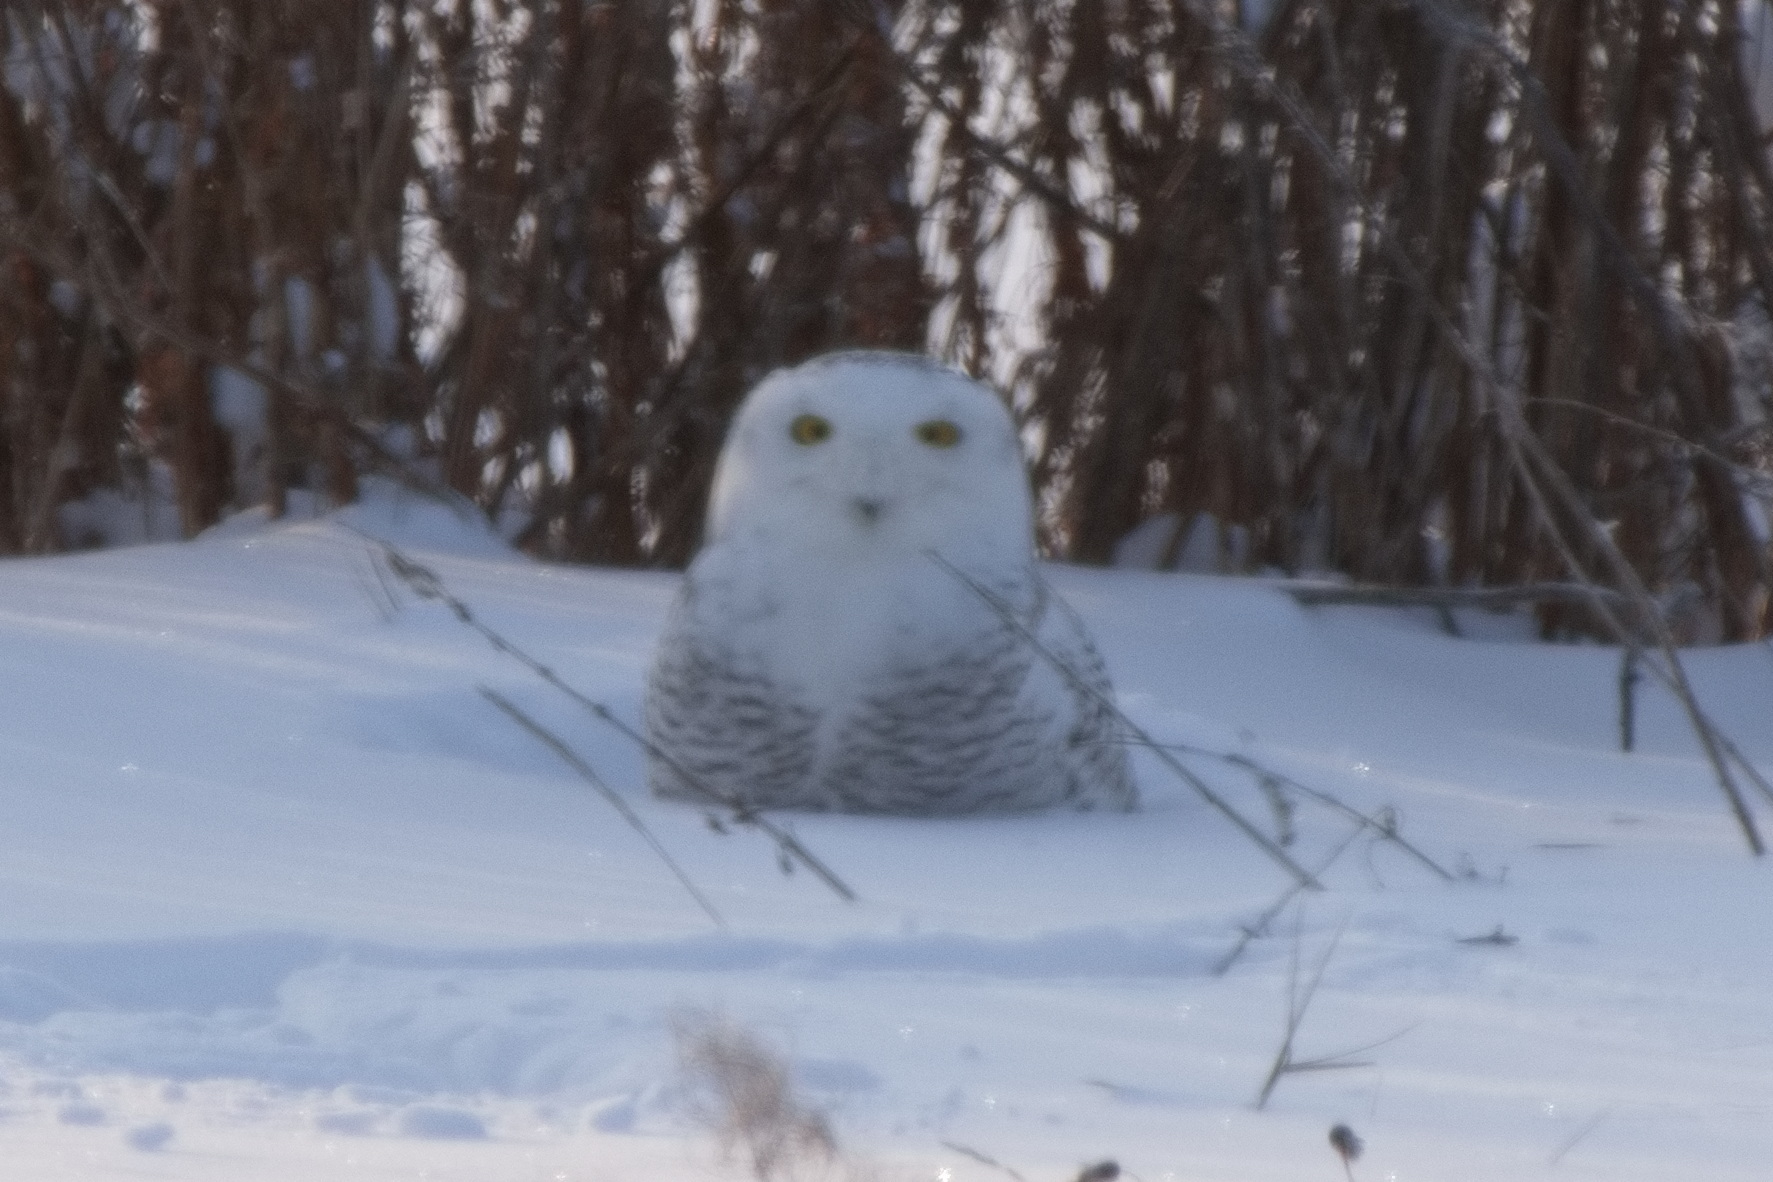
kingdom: Animalia
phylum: Chordata
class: Aves
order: Strigiformes
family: Strigidae
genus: Bubo
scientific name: Bubo scandiacus
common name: Snowy owl
